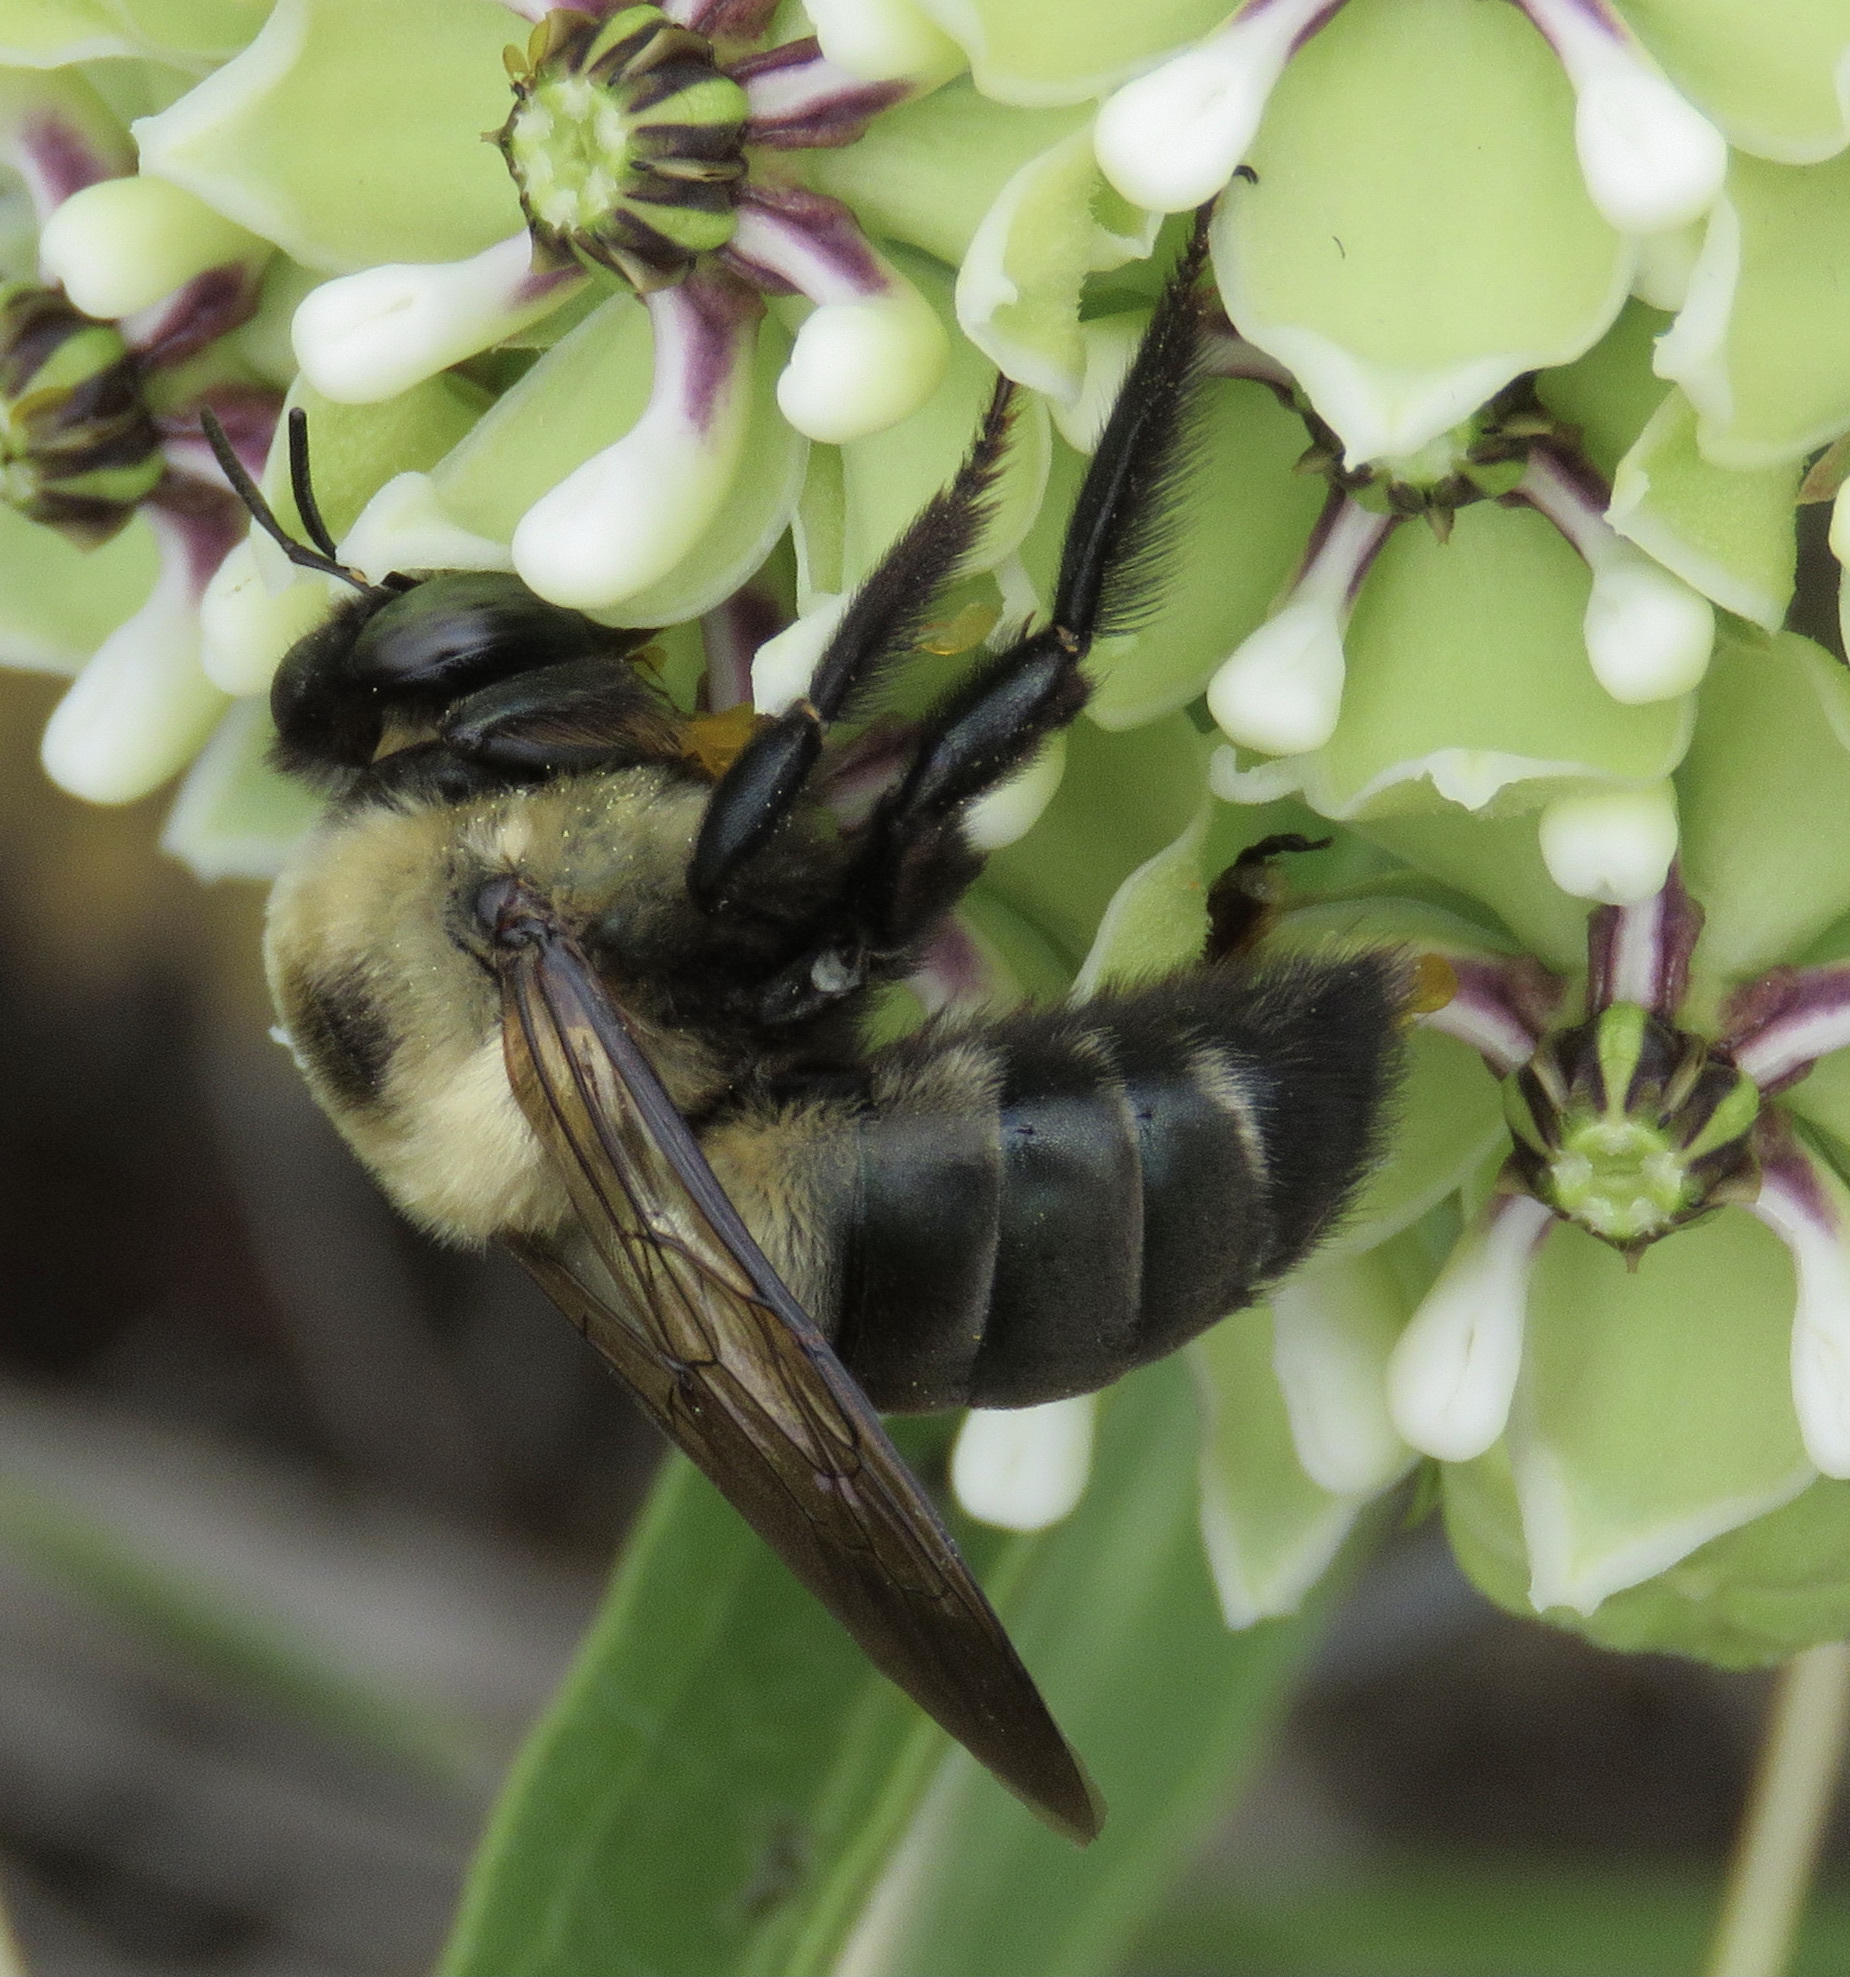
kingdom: Animalia
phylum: Arthropoda
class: Insecta
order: Hymenoptera
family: Apidae
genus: Xylocopa
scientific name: Xylocopa virginica
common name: Carpenter bee
